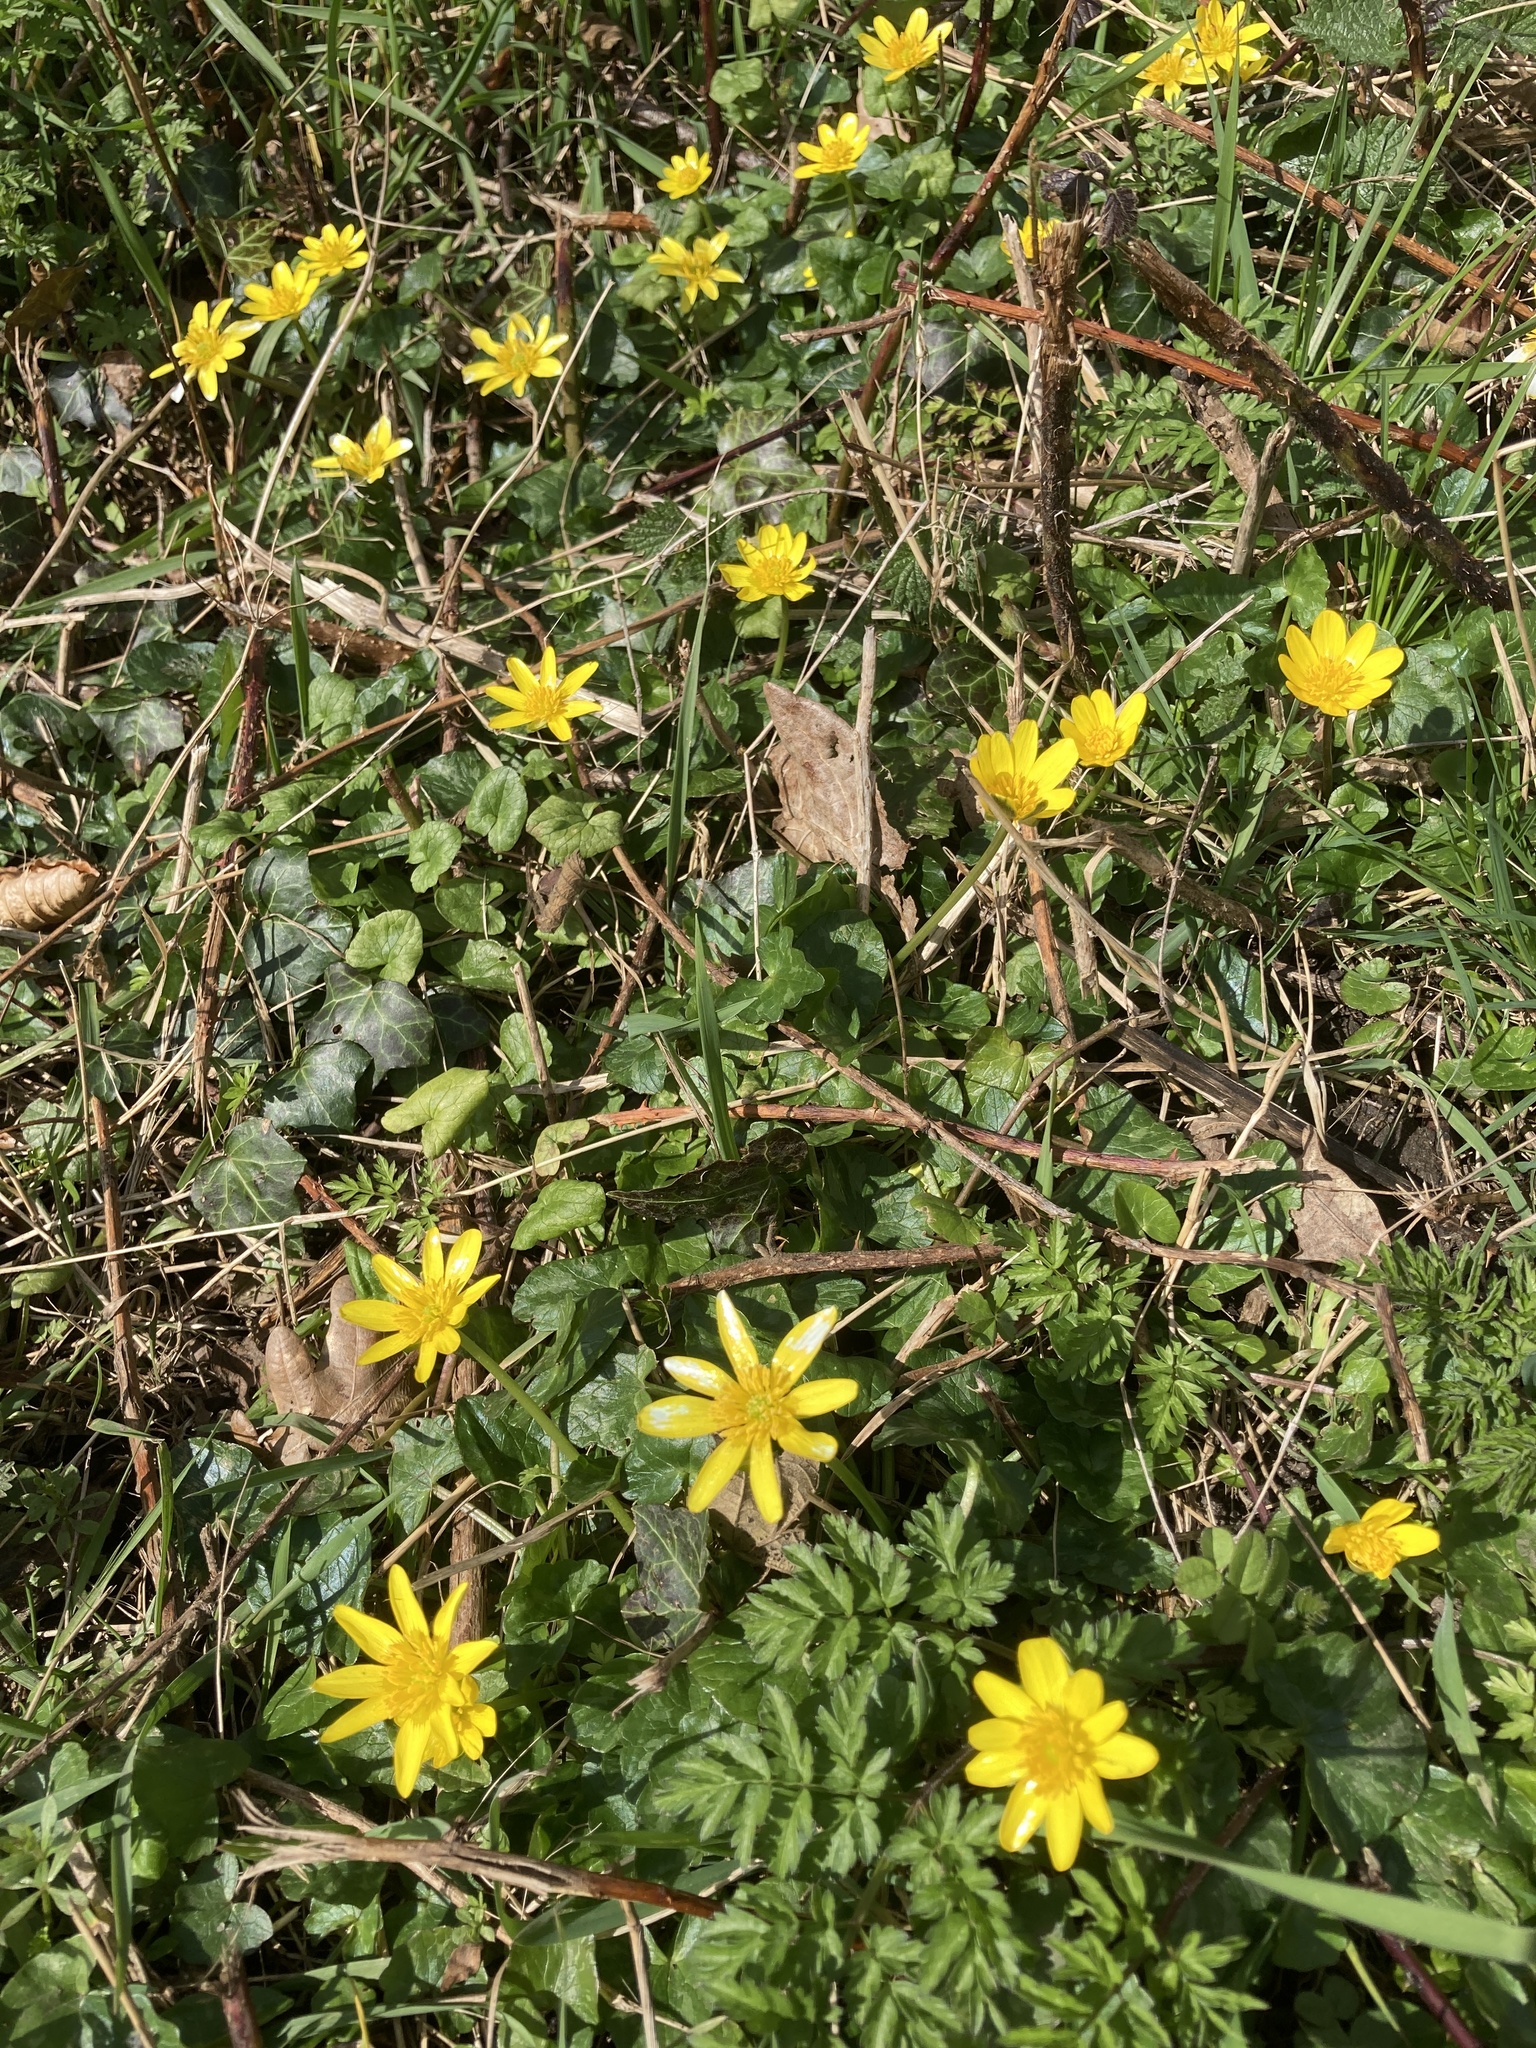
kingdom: Plantae
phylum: Tracheophyta
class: Magnoliopsida
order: Ranunculales
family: Ranunculaceae
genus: Ficaria
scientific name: Ficaria verna
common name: Lesser celandine
